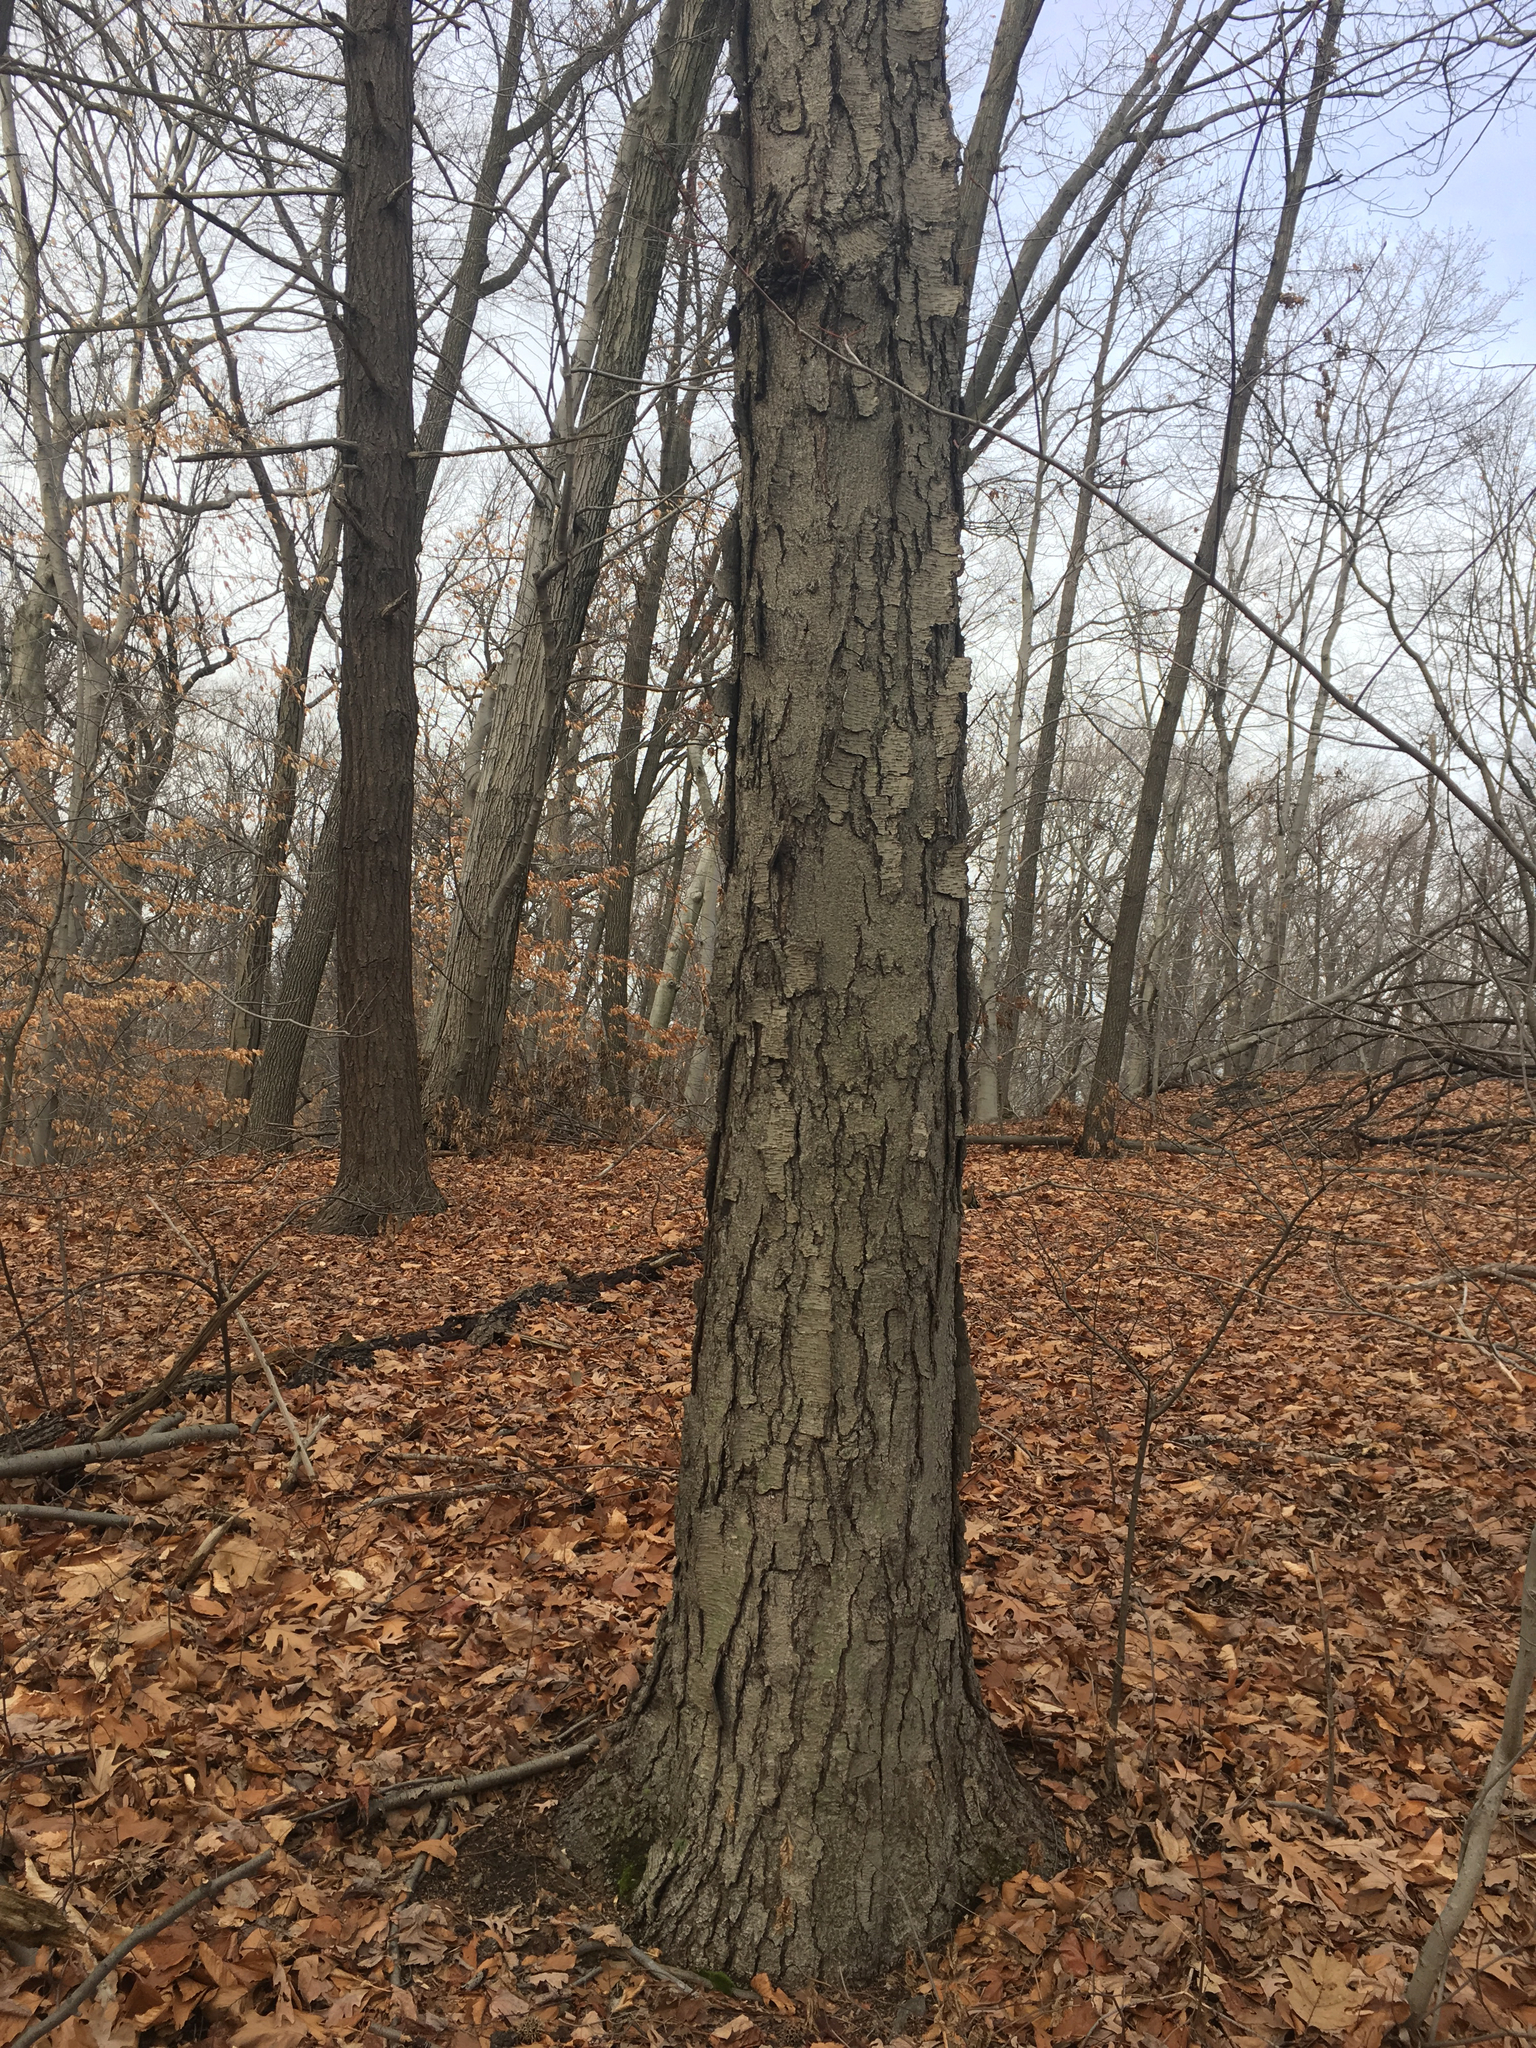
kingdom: Plantae
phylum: Tracheophyta
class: Magnoliopsida
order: Fagales
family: Betulaceae
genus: Betula
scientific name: Betula lenta
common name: Black birch
